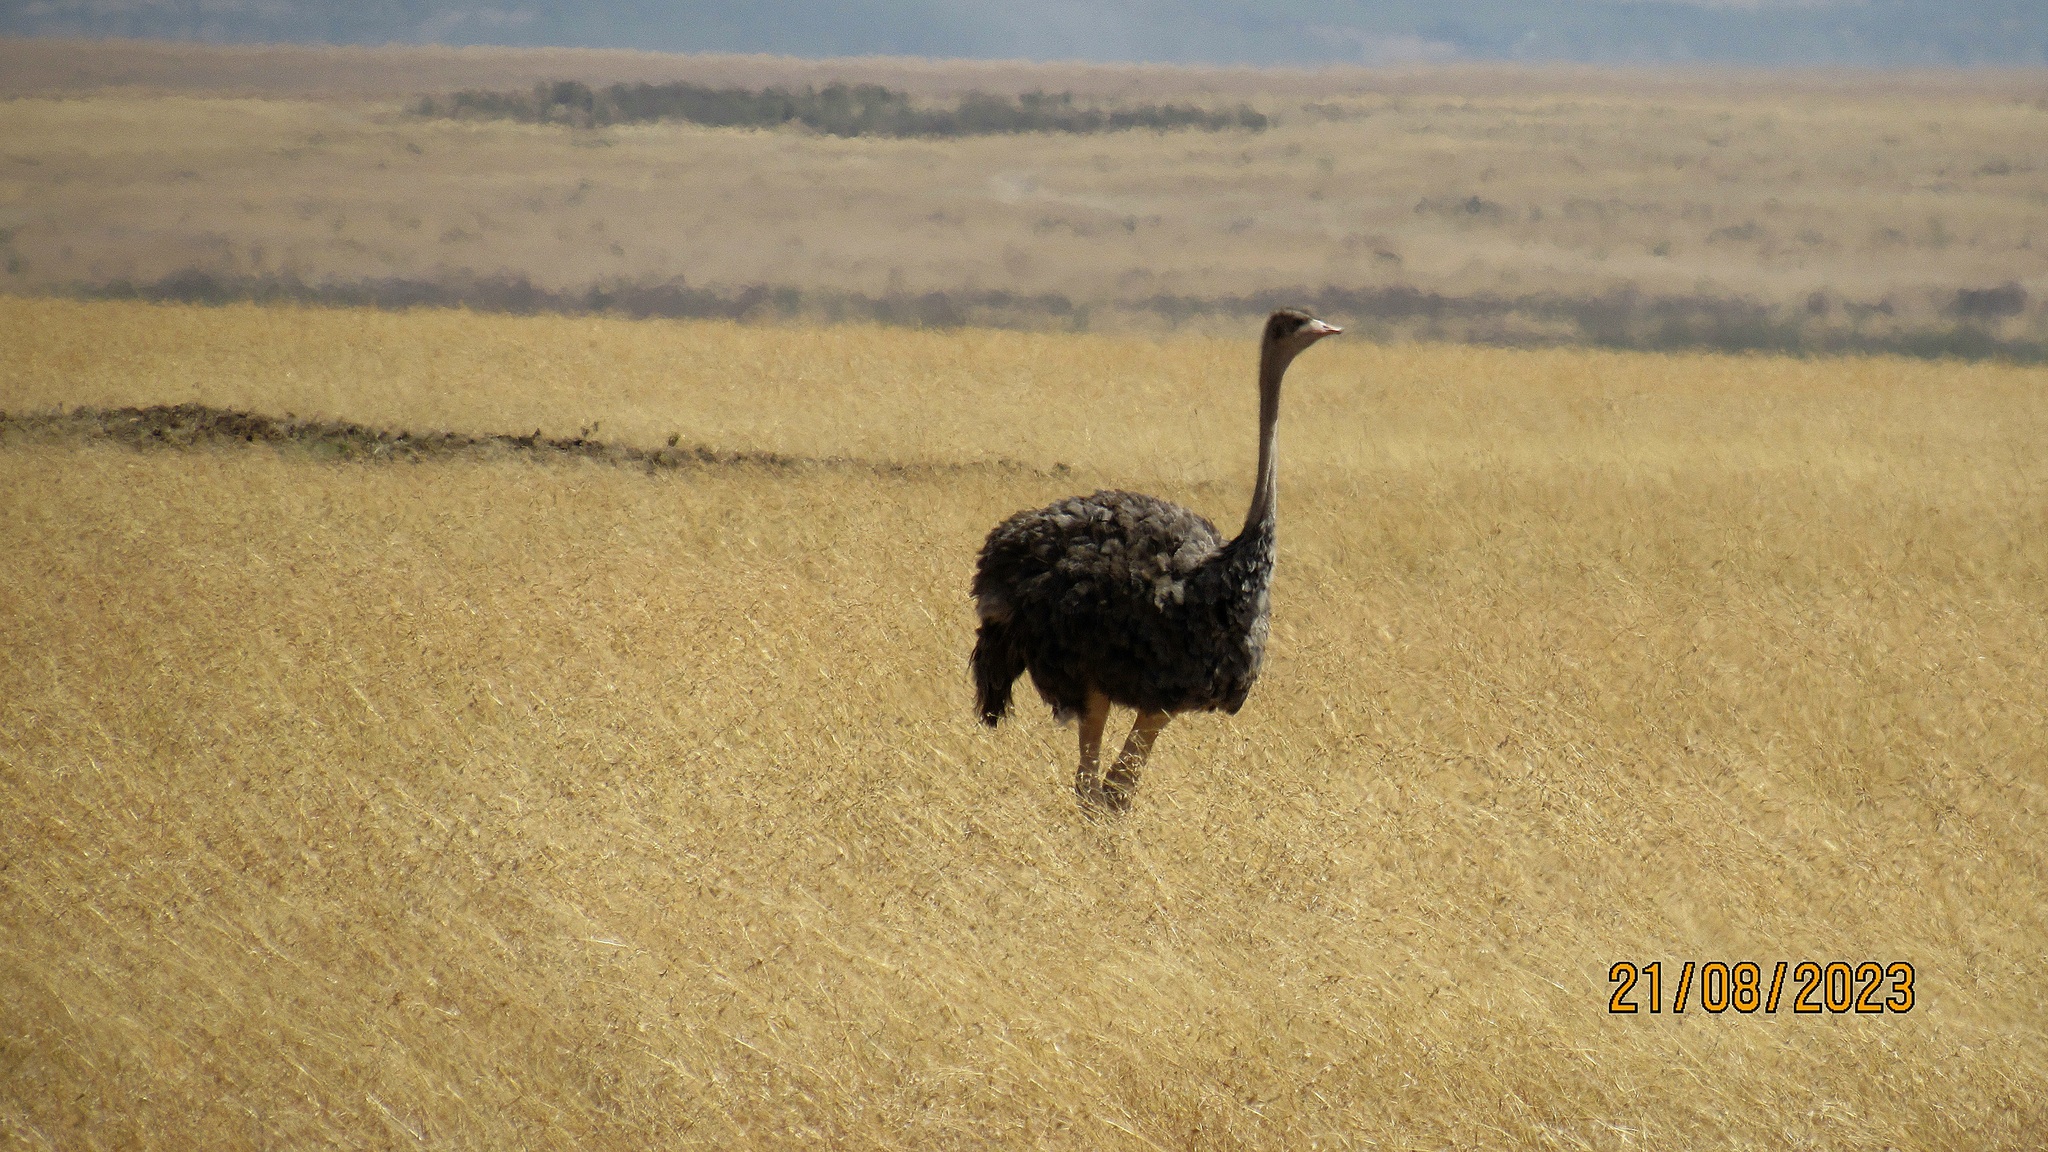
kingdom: Animalia
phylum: Chordata
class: Aves
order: Struthioniformes
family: Struthionidae
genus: Struthio
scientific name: Struthio camelus
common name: Common ostrich
